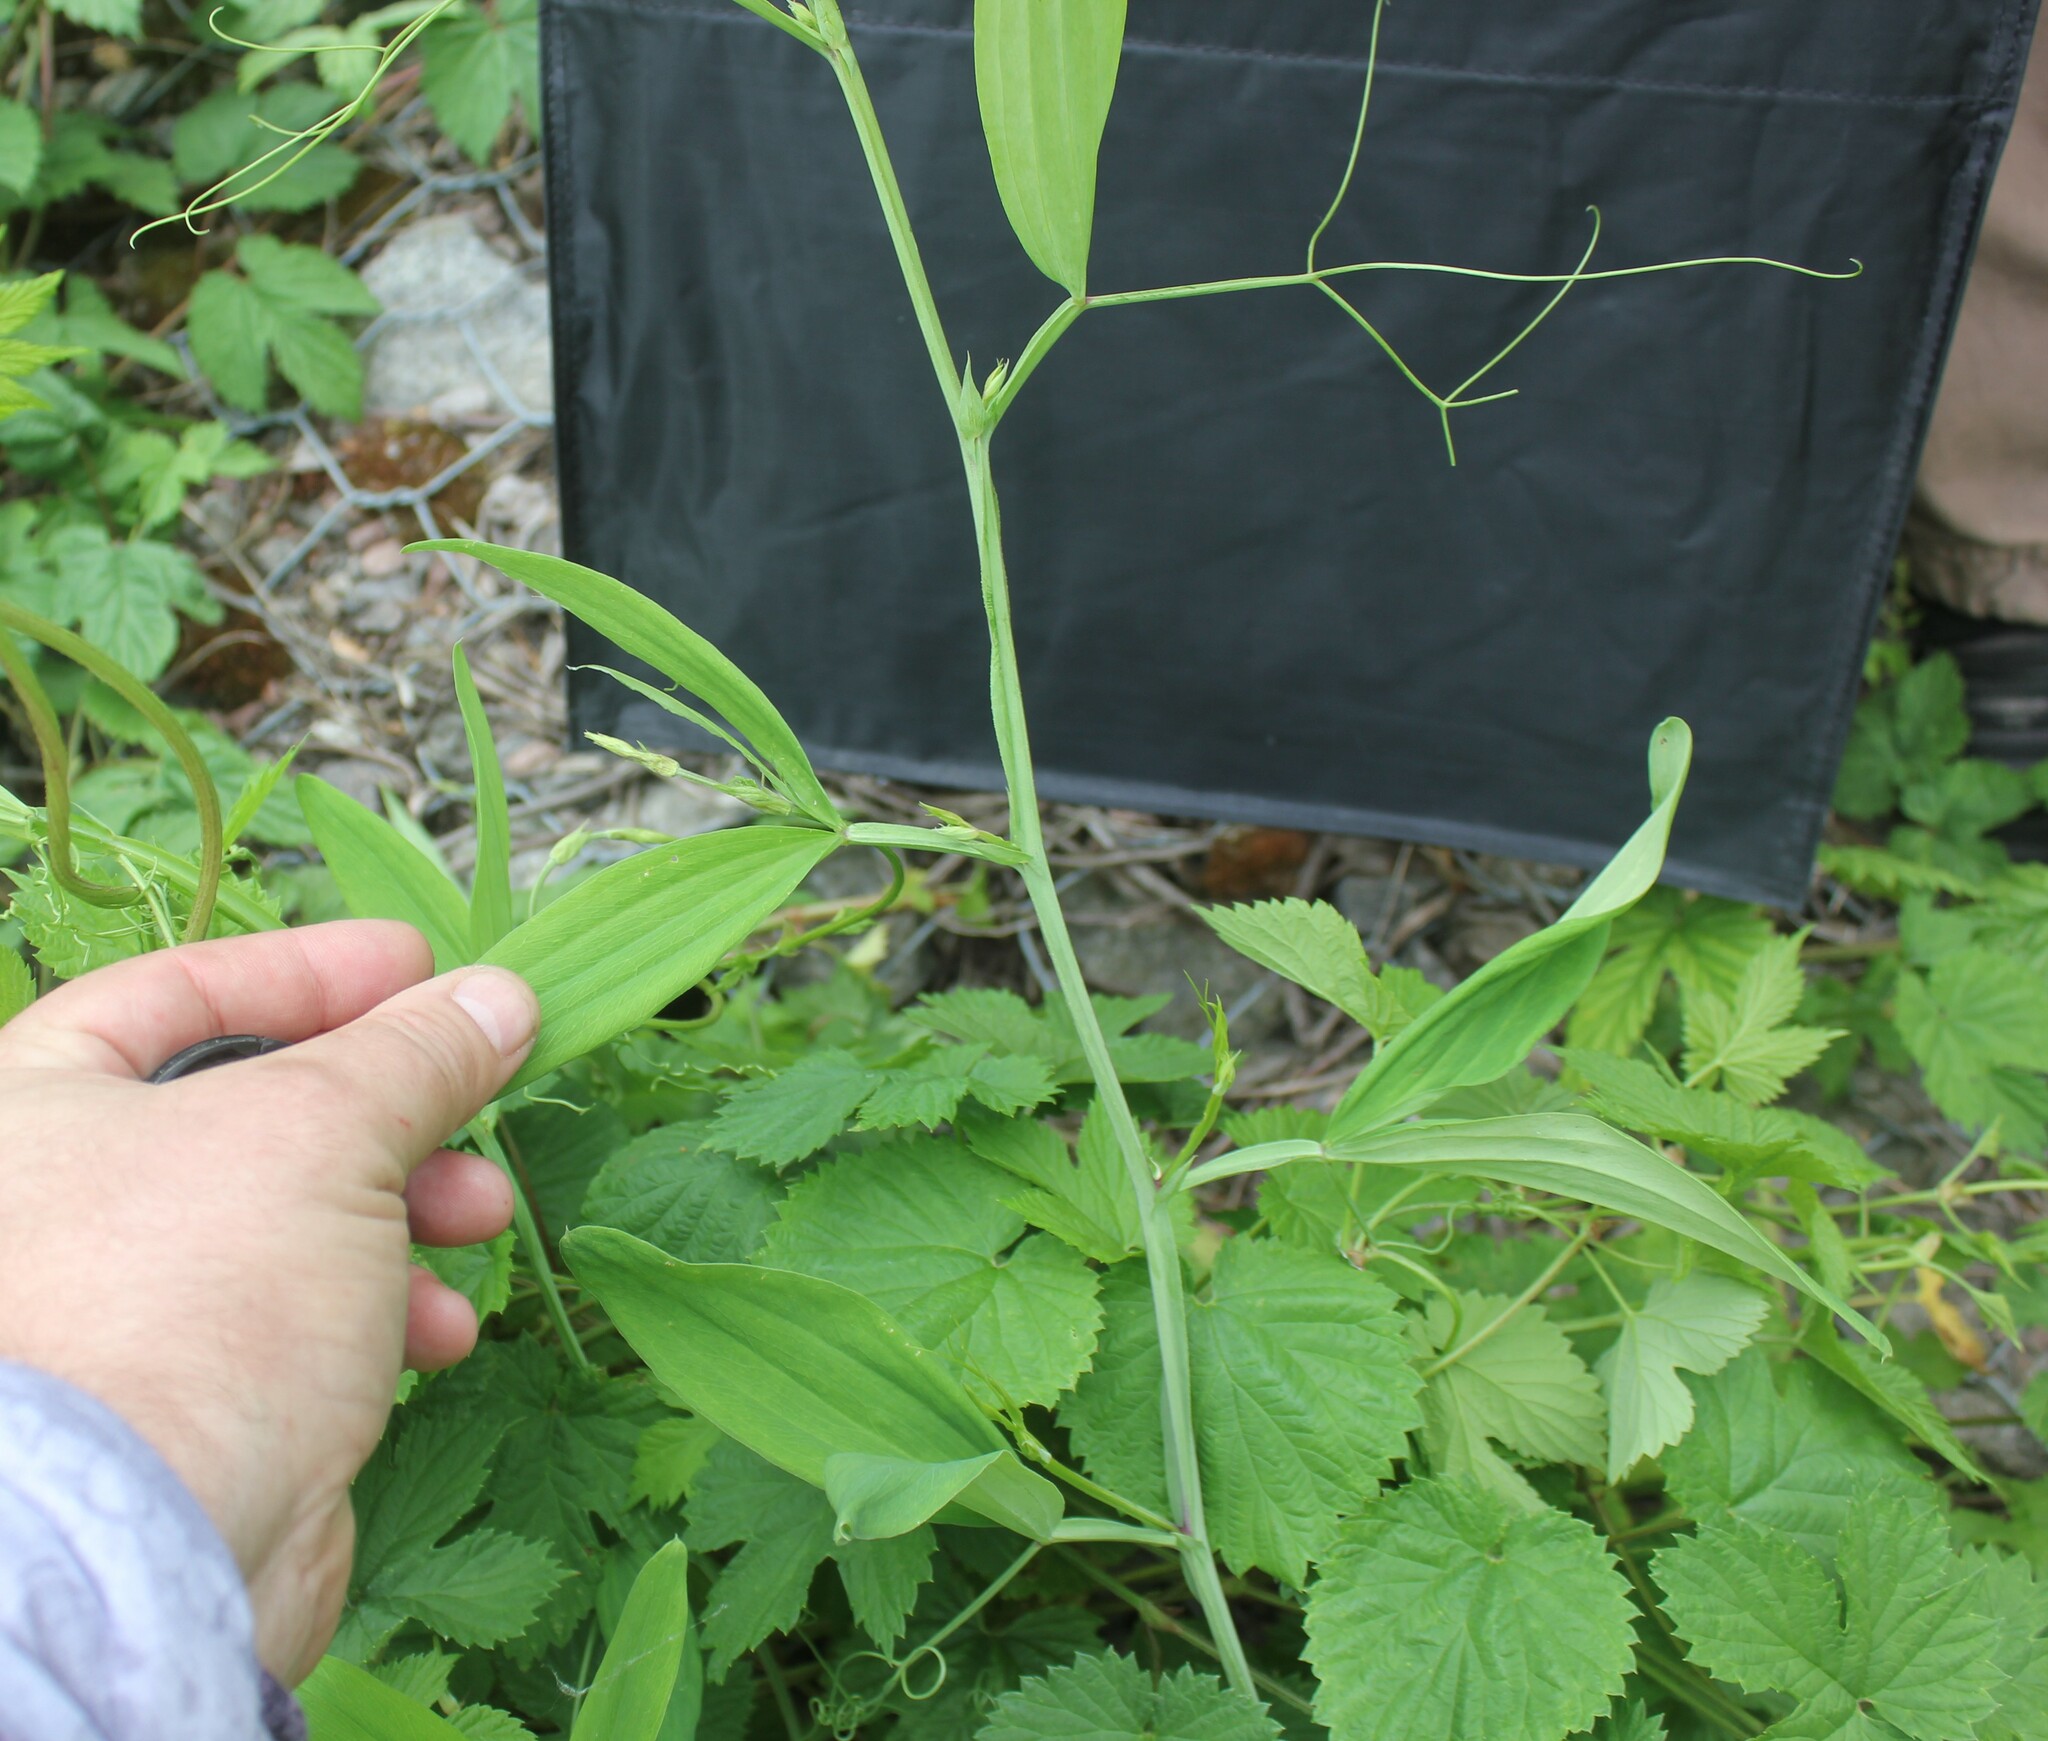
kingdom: Plantae
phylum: Tracheophyta
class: Magnoliopsida
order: Fabales
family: Fabaceae
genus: Lathyrus
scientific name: Lathyrus sylvestris
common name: Flat pea
